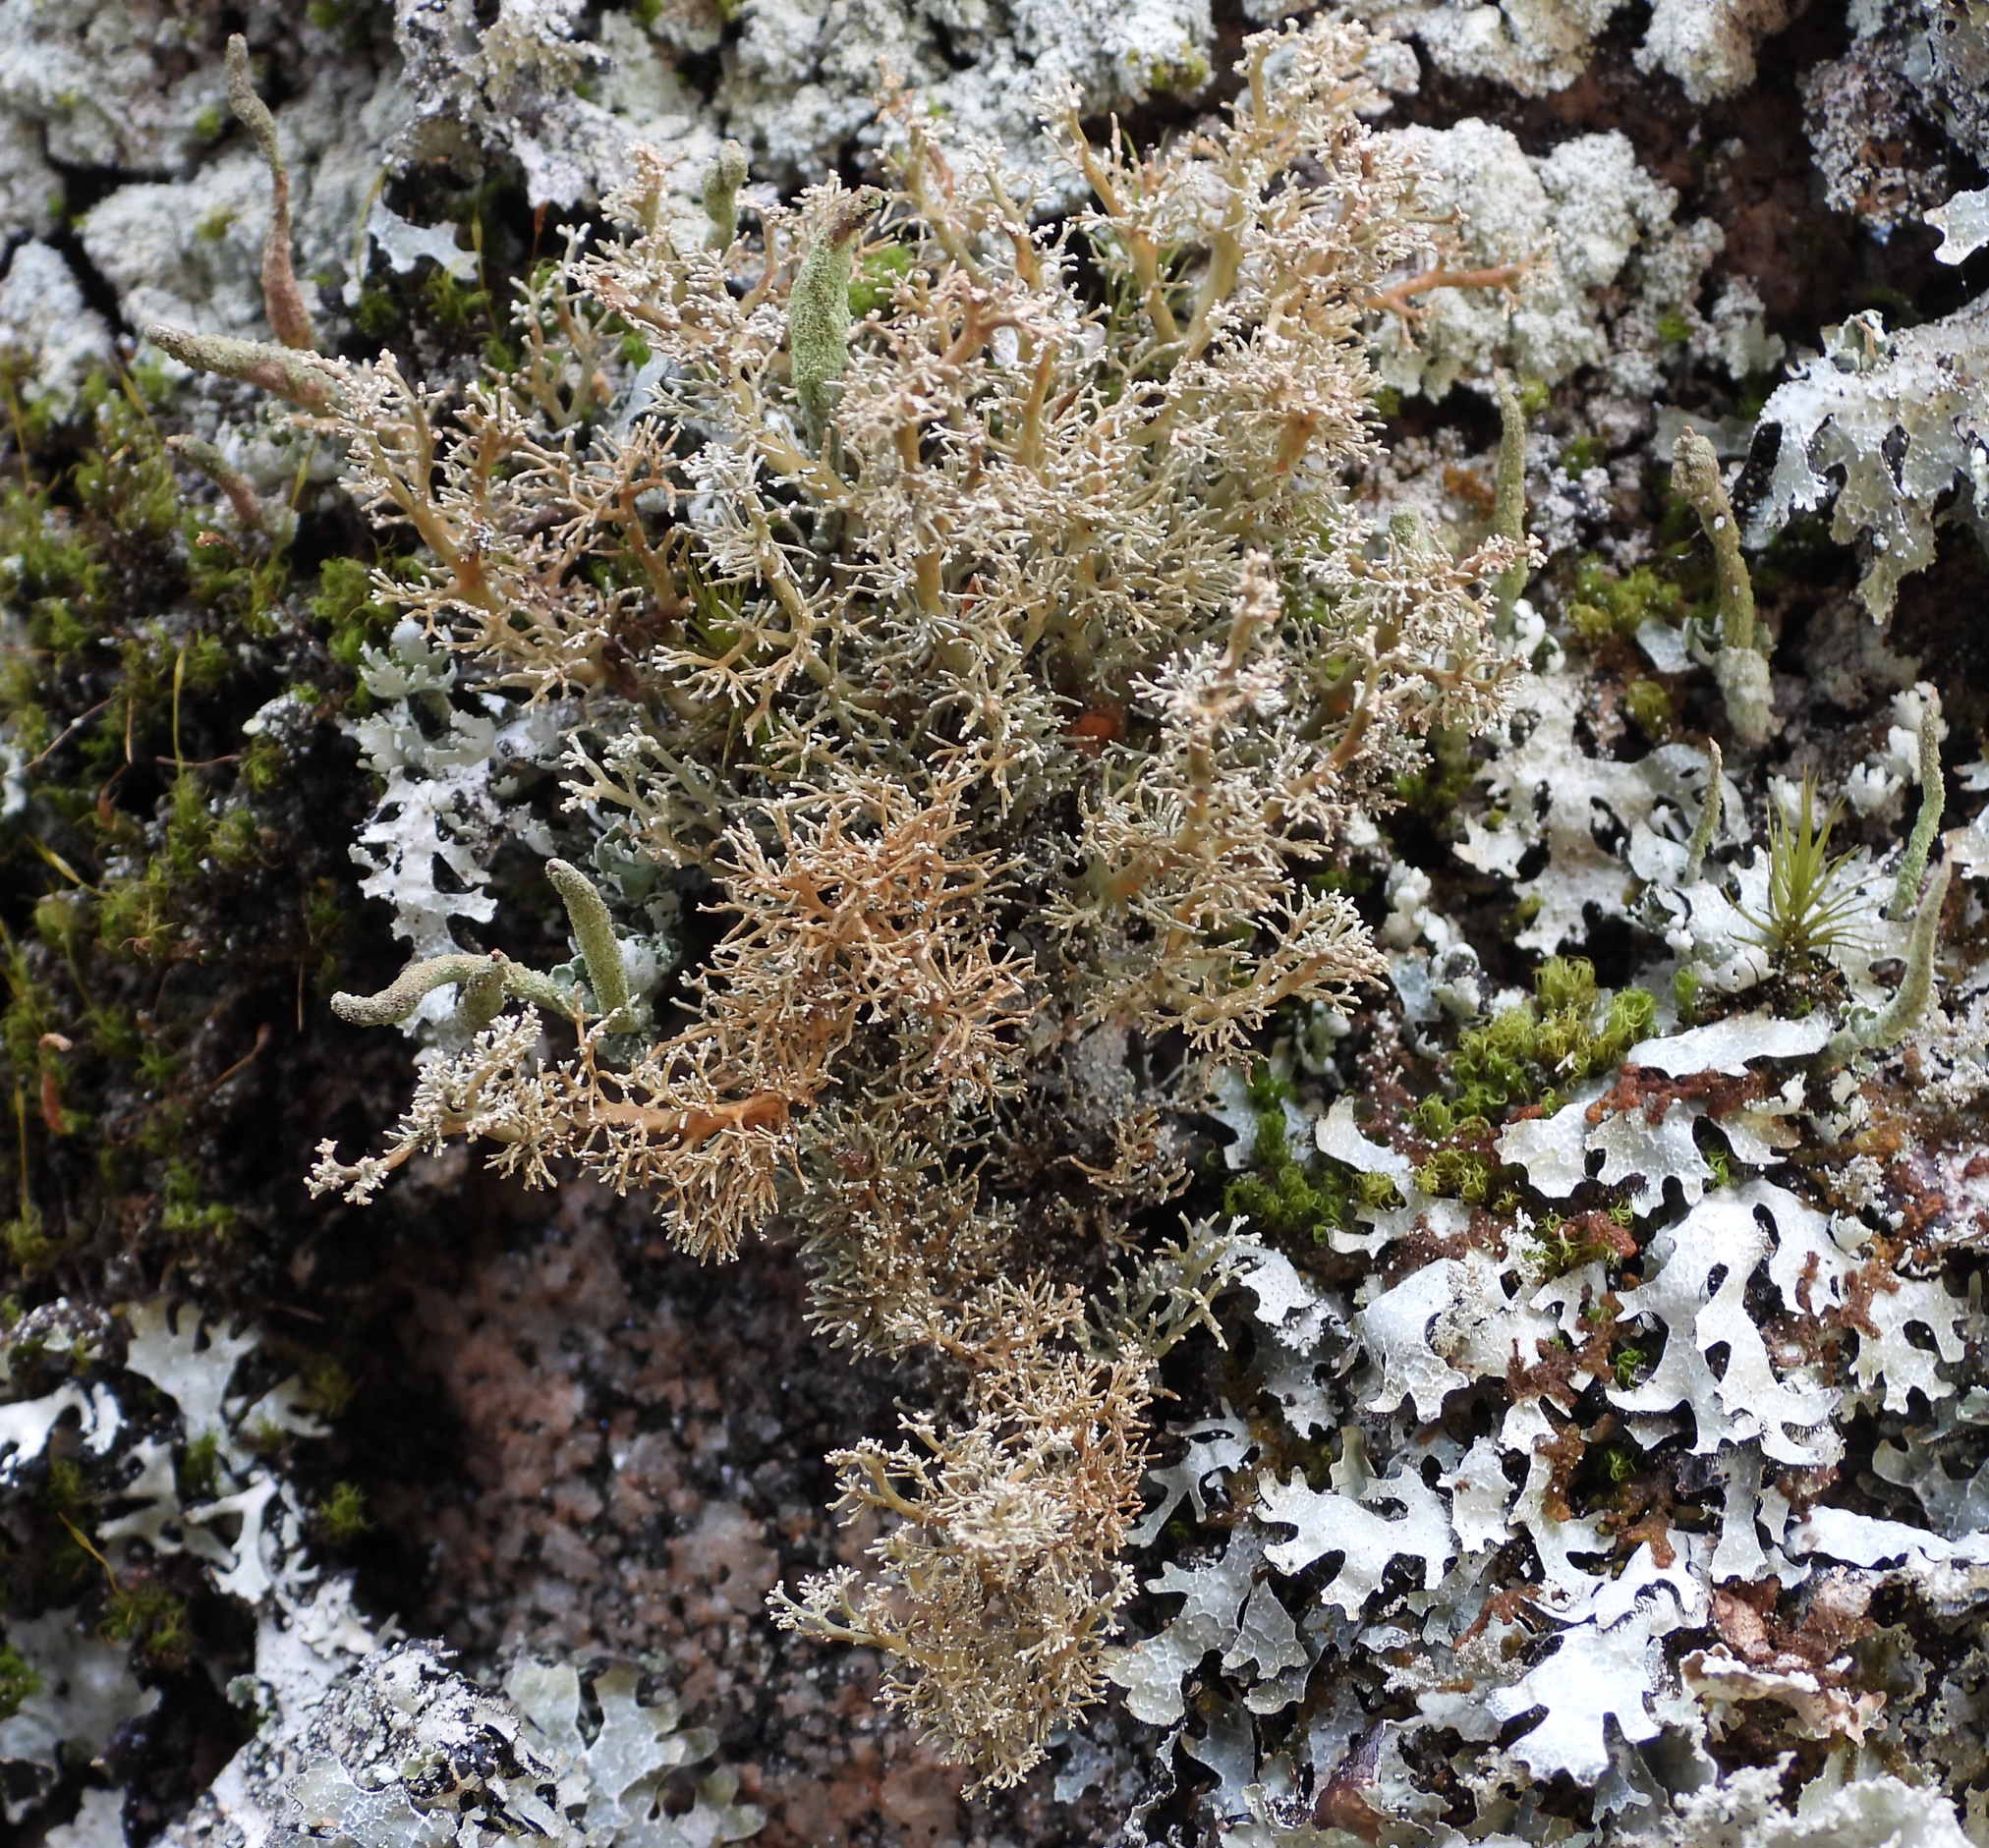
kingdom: Fungi
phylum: Ascomycota
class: Lecanoromycetes
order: Lecanorales
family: Sphaerophoraceae
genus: Sphaerophorus
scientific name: Sphaerophorus globosus
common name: Globe ball lichen
